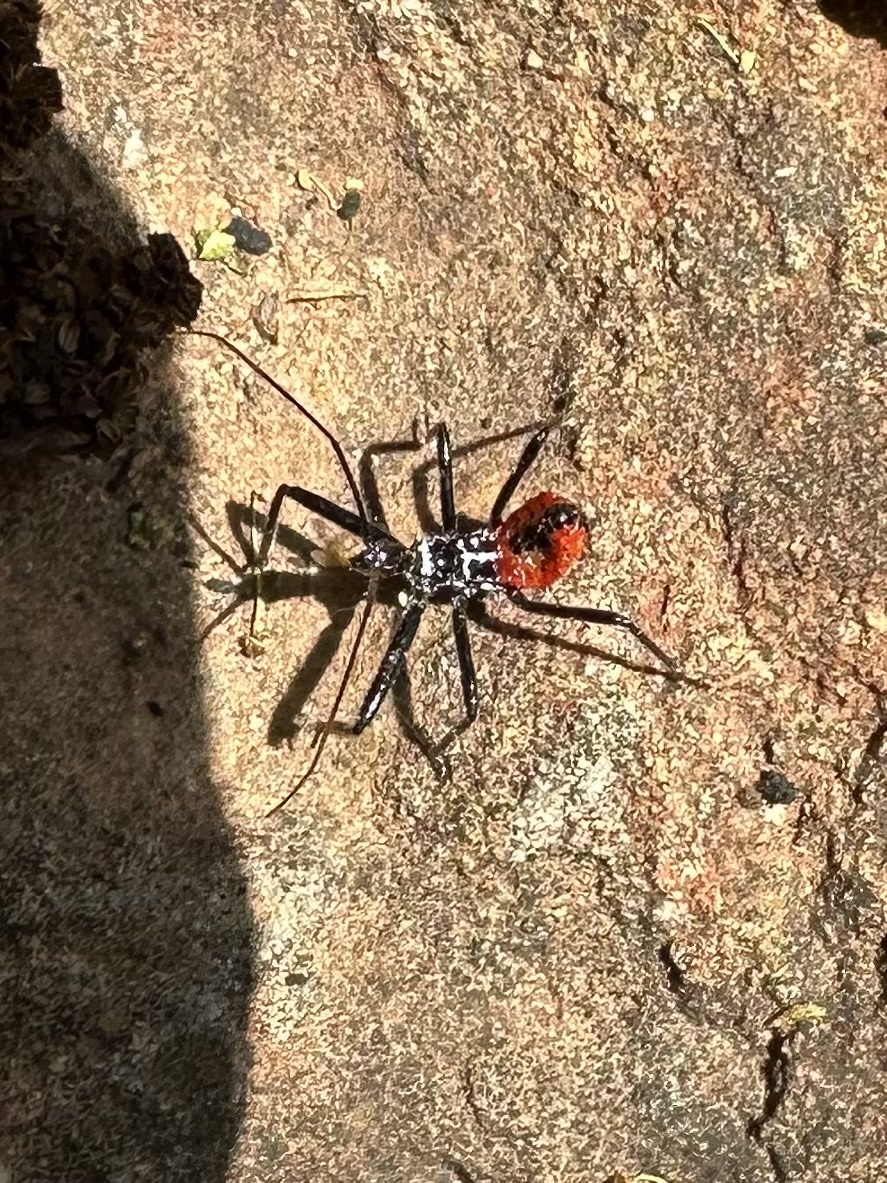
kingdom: Animalia
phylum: Arthropoda
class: Insecta
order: Hemiptera
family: Reduviidae
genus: Arilus
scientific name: Arilus cristatus
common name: North american wheel bug
